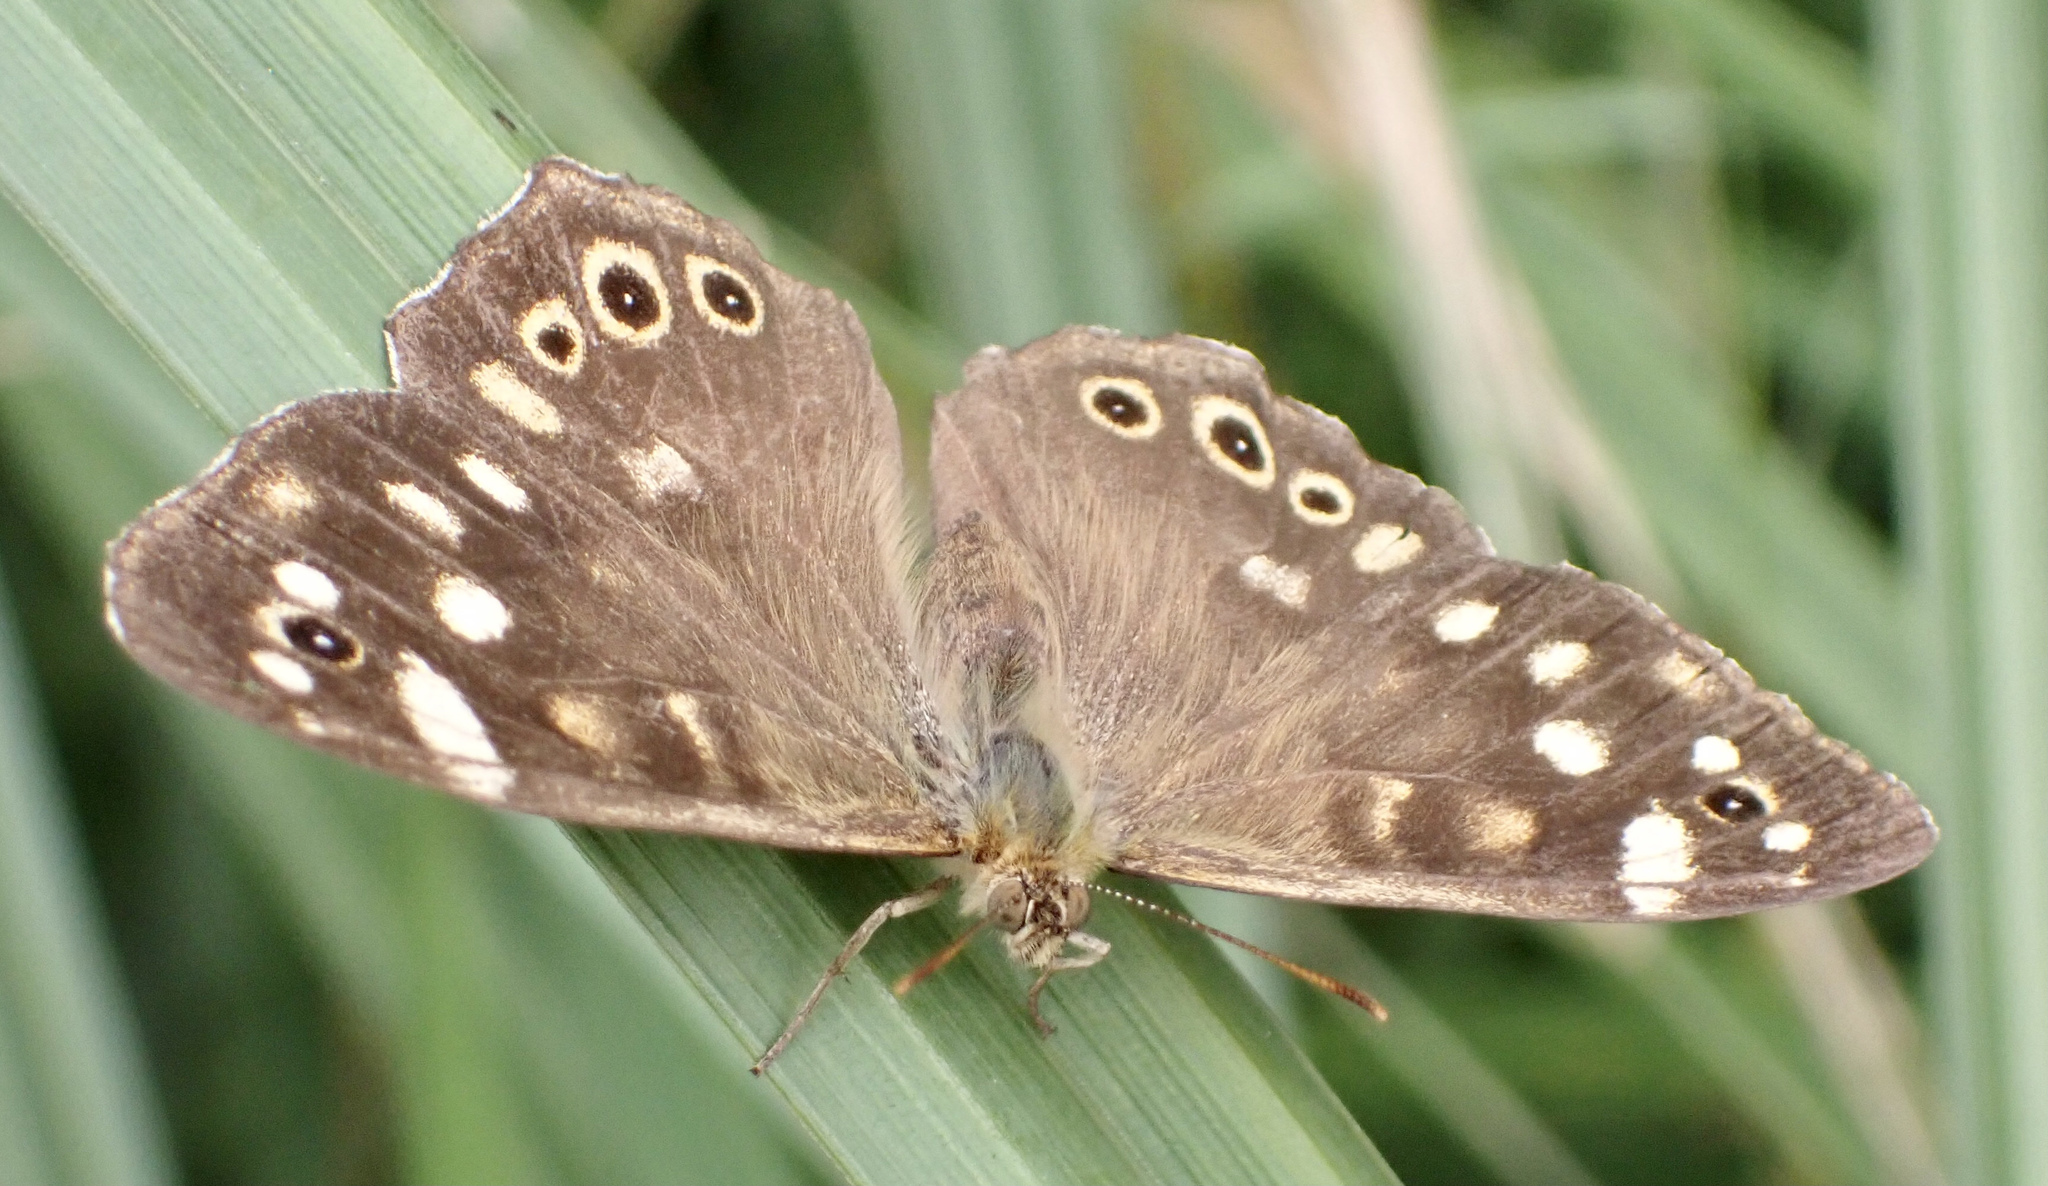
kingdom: Animalia
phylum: Arthropoda
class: Insecta
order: Lepidoptera
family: Nymphalidae
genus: Pararge
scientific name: Pararge aegeria
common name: Speckled wood
